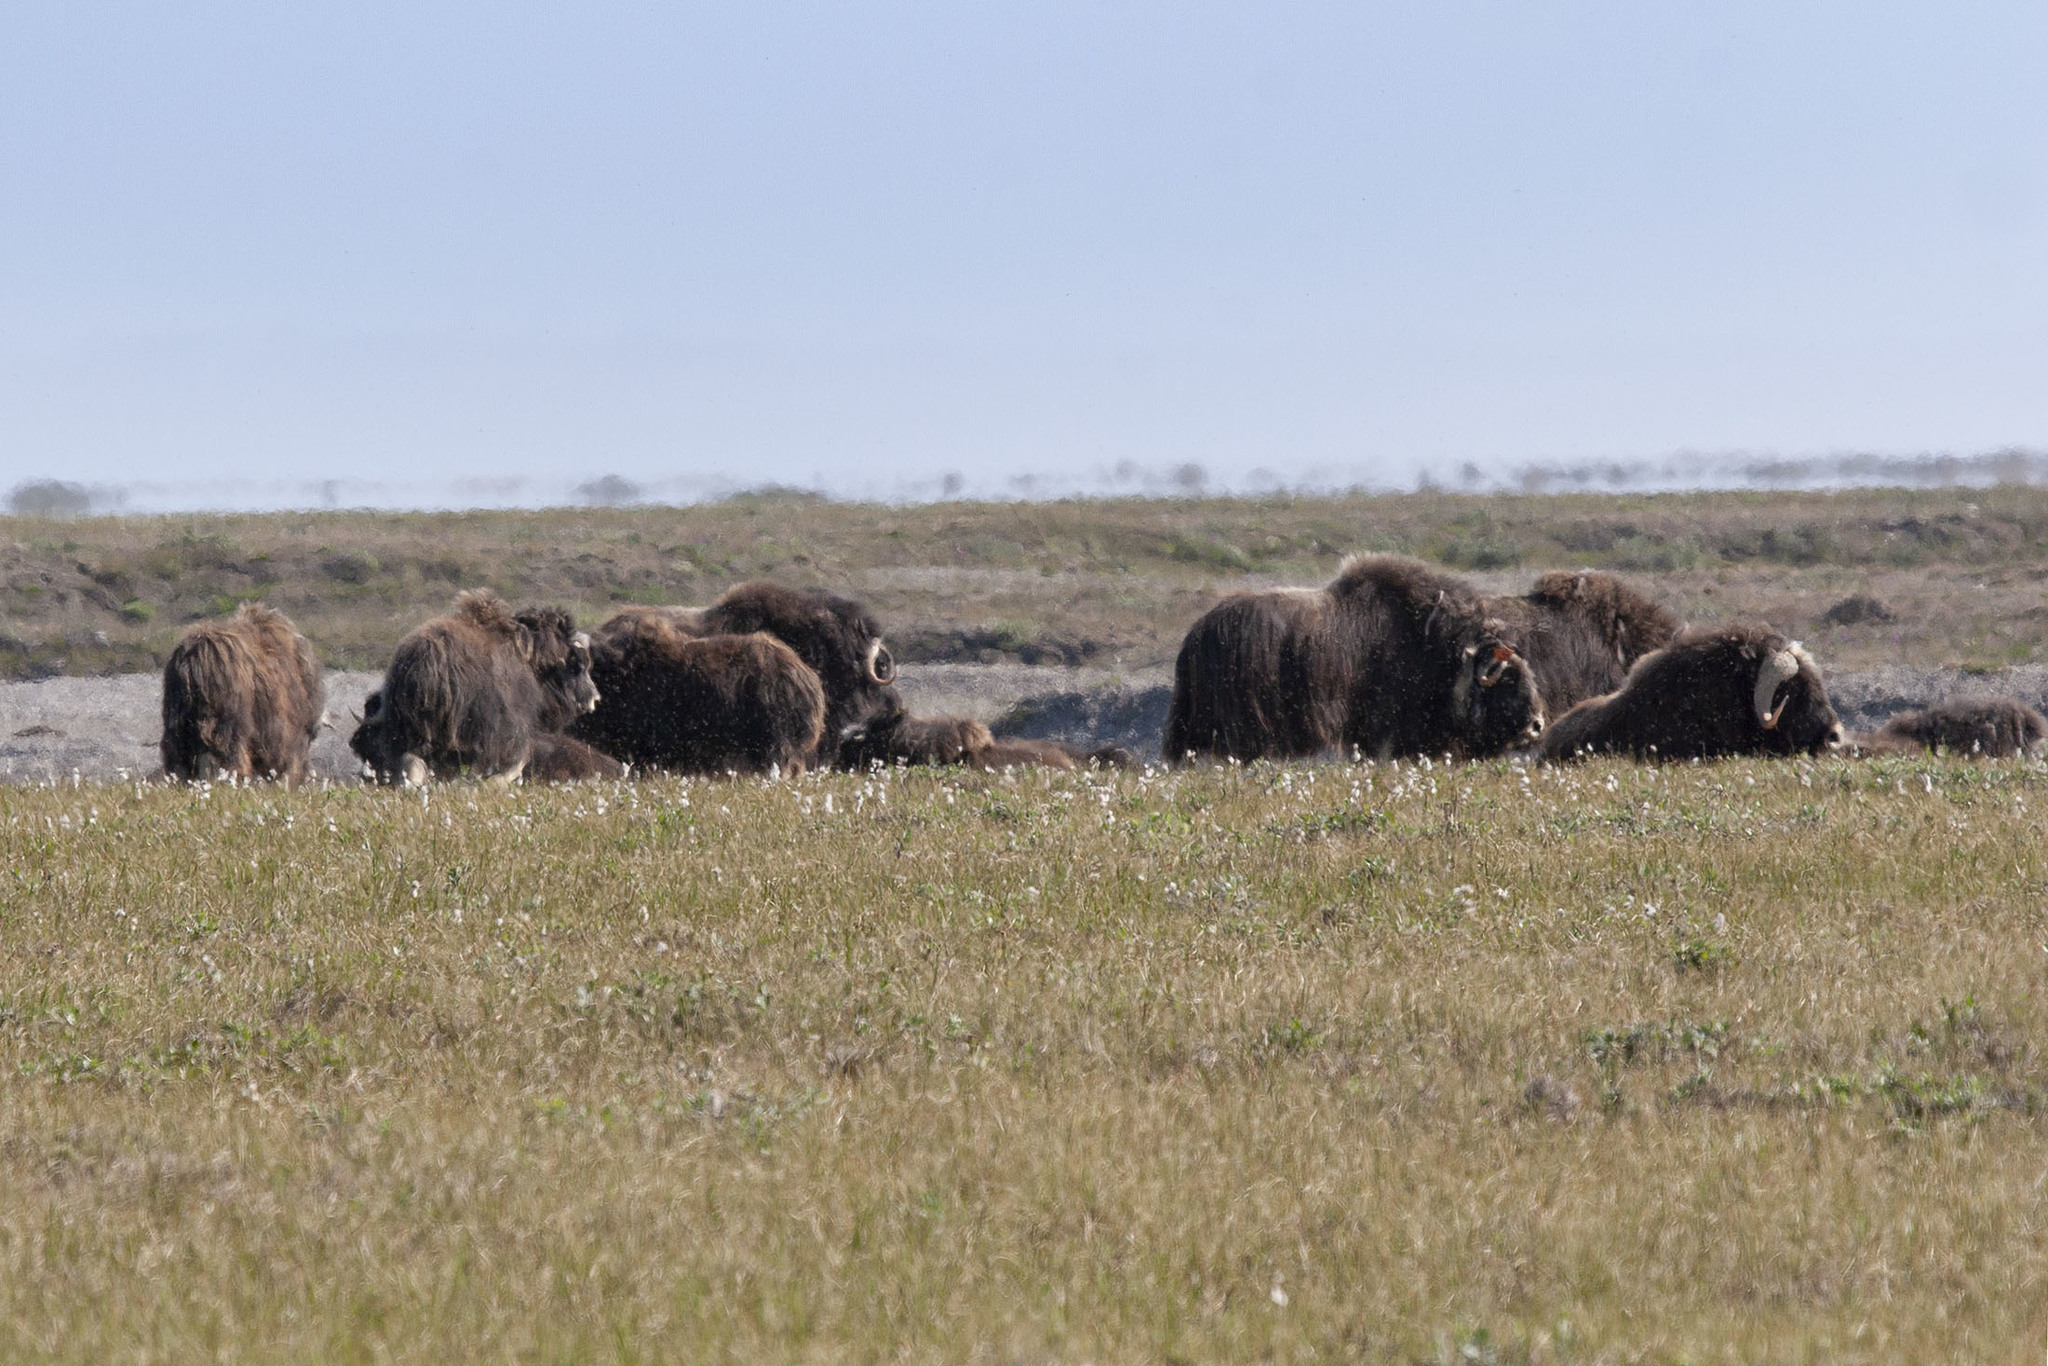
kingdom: Animalia
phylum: Chordata
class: Mammalia
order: Artiodactyla
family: Bovidae
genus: Ovibos
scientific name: Ovibos moschatus
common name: Muskox
